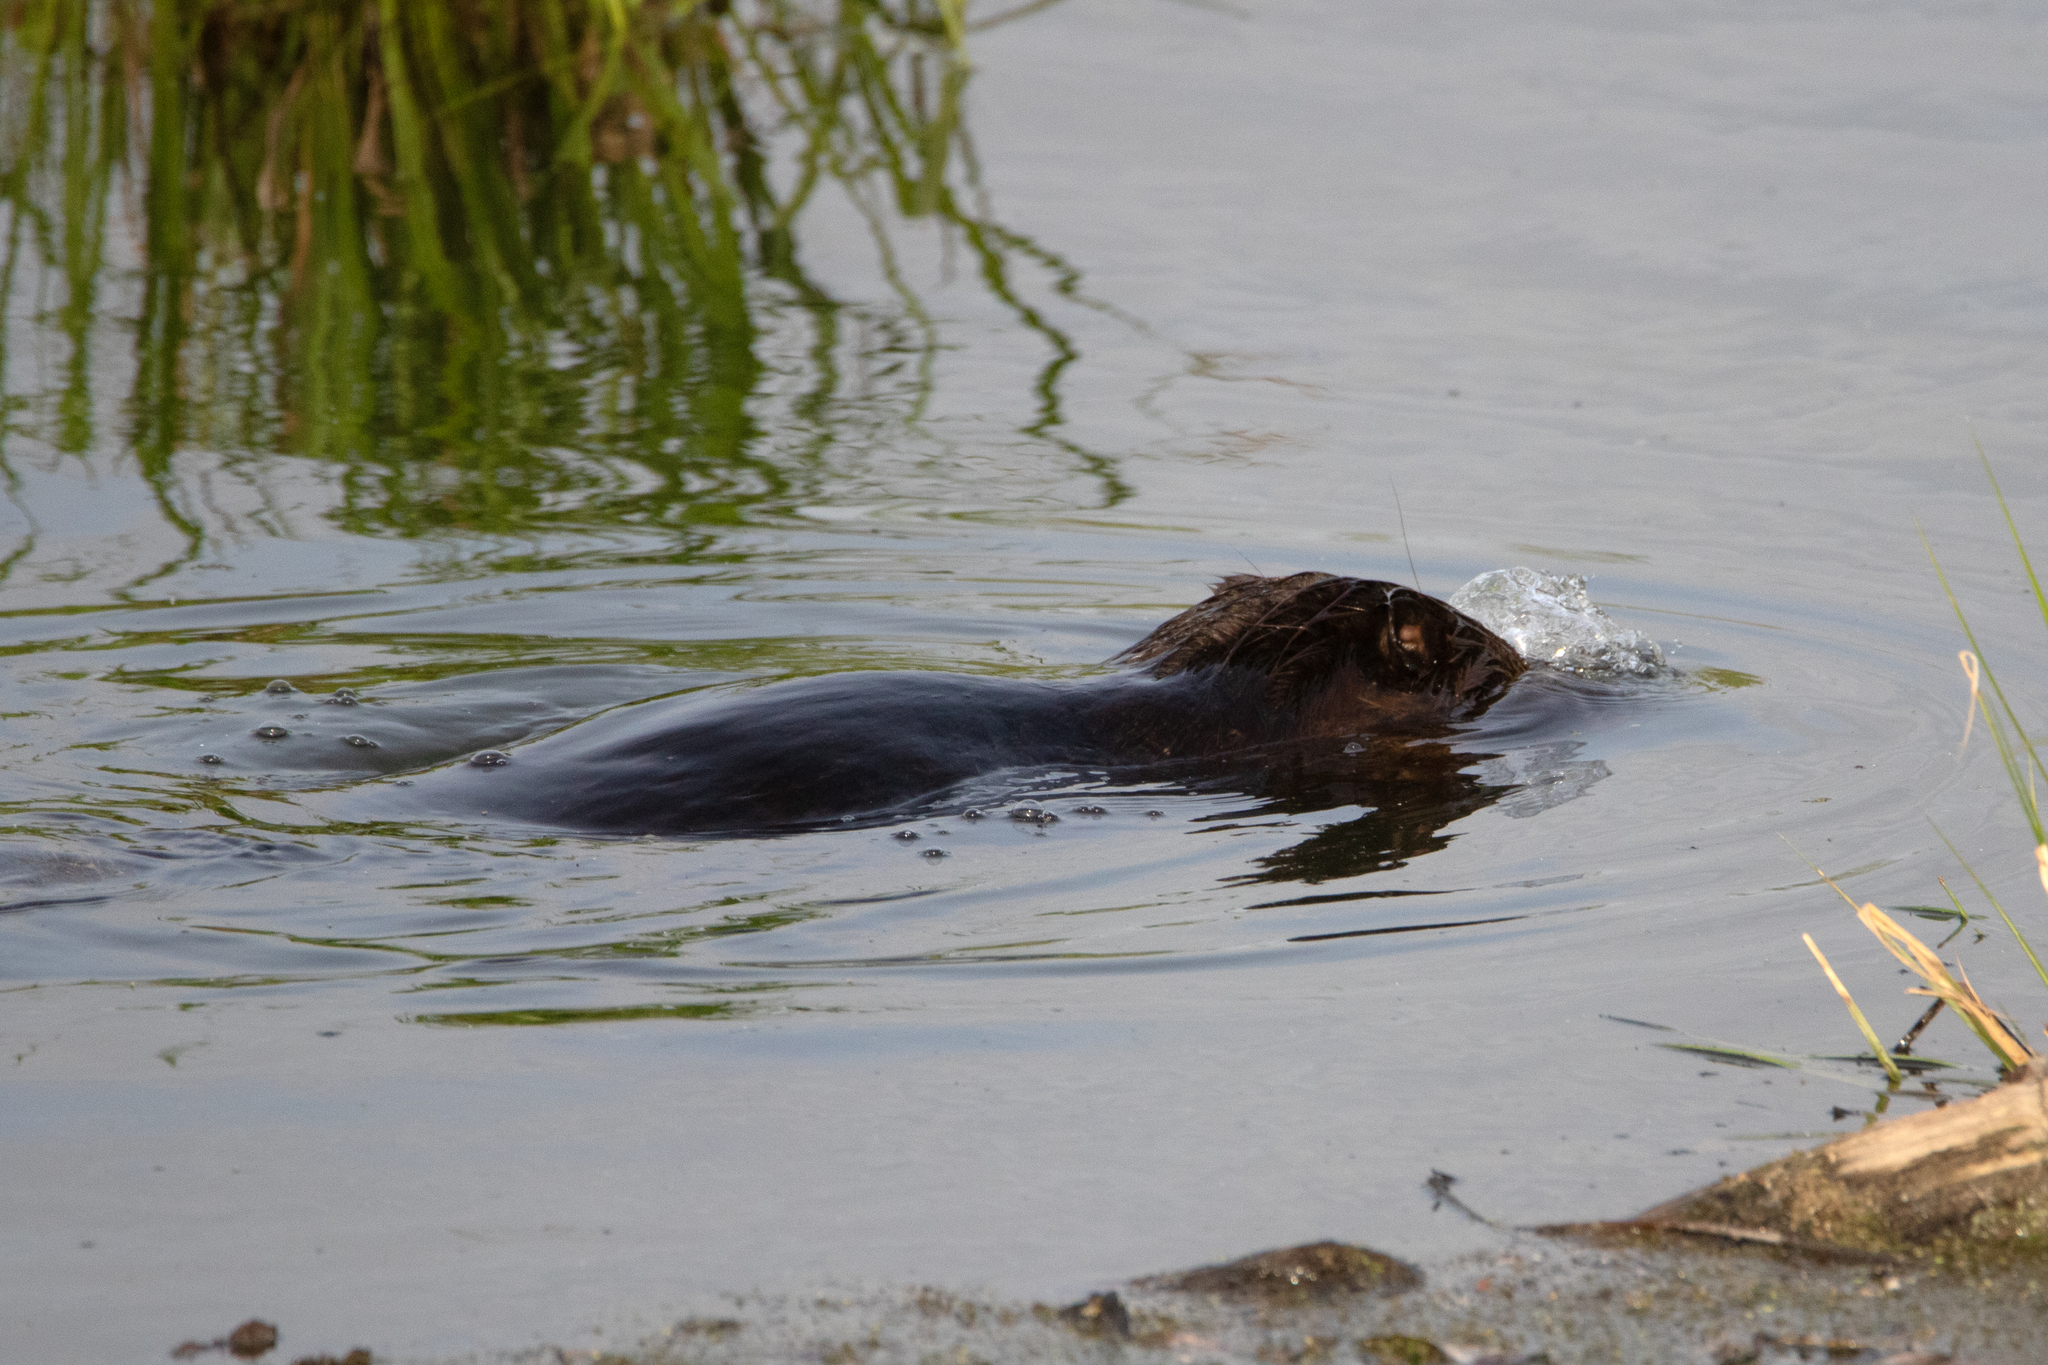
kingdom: Animalia
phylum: Chordata
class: Mammalia
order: Rodentia
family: Castoridae
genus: Castor
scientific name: Castor fiber
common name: Eurasian beaver
